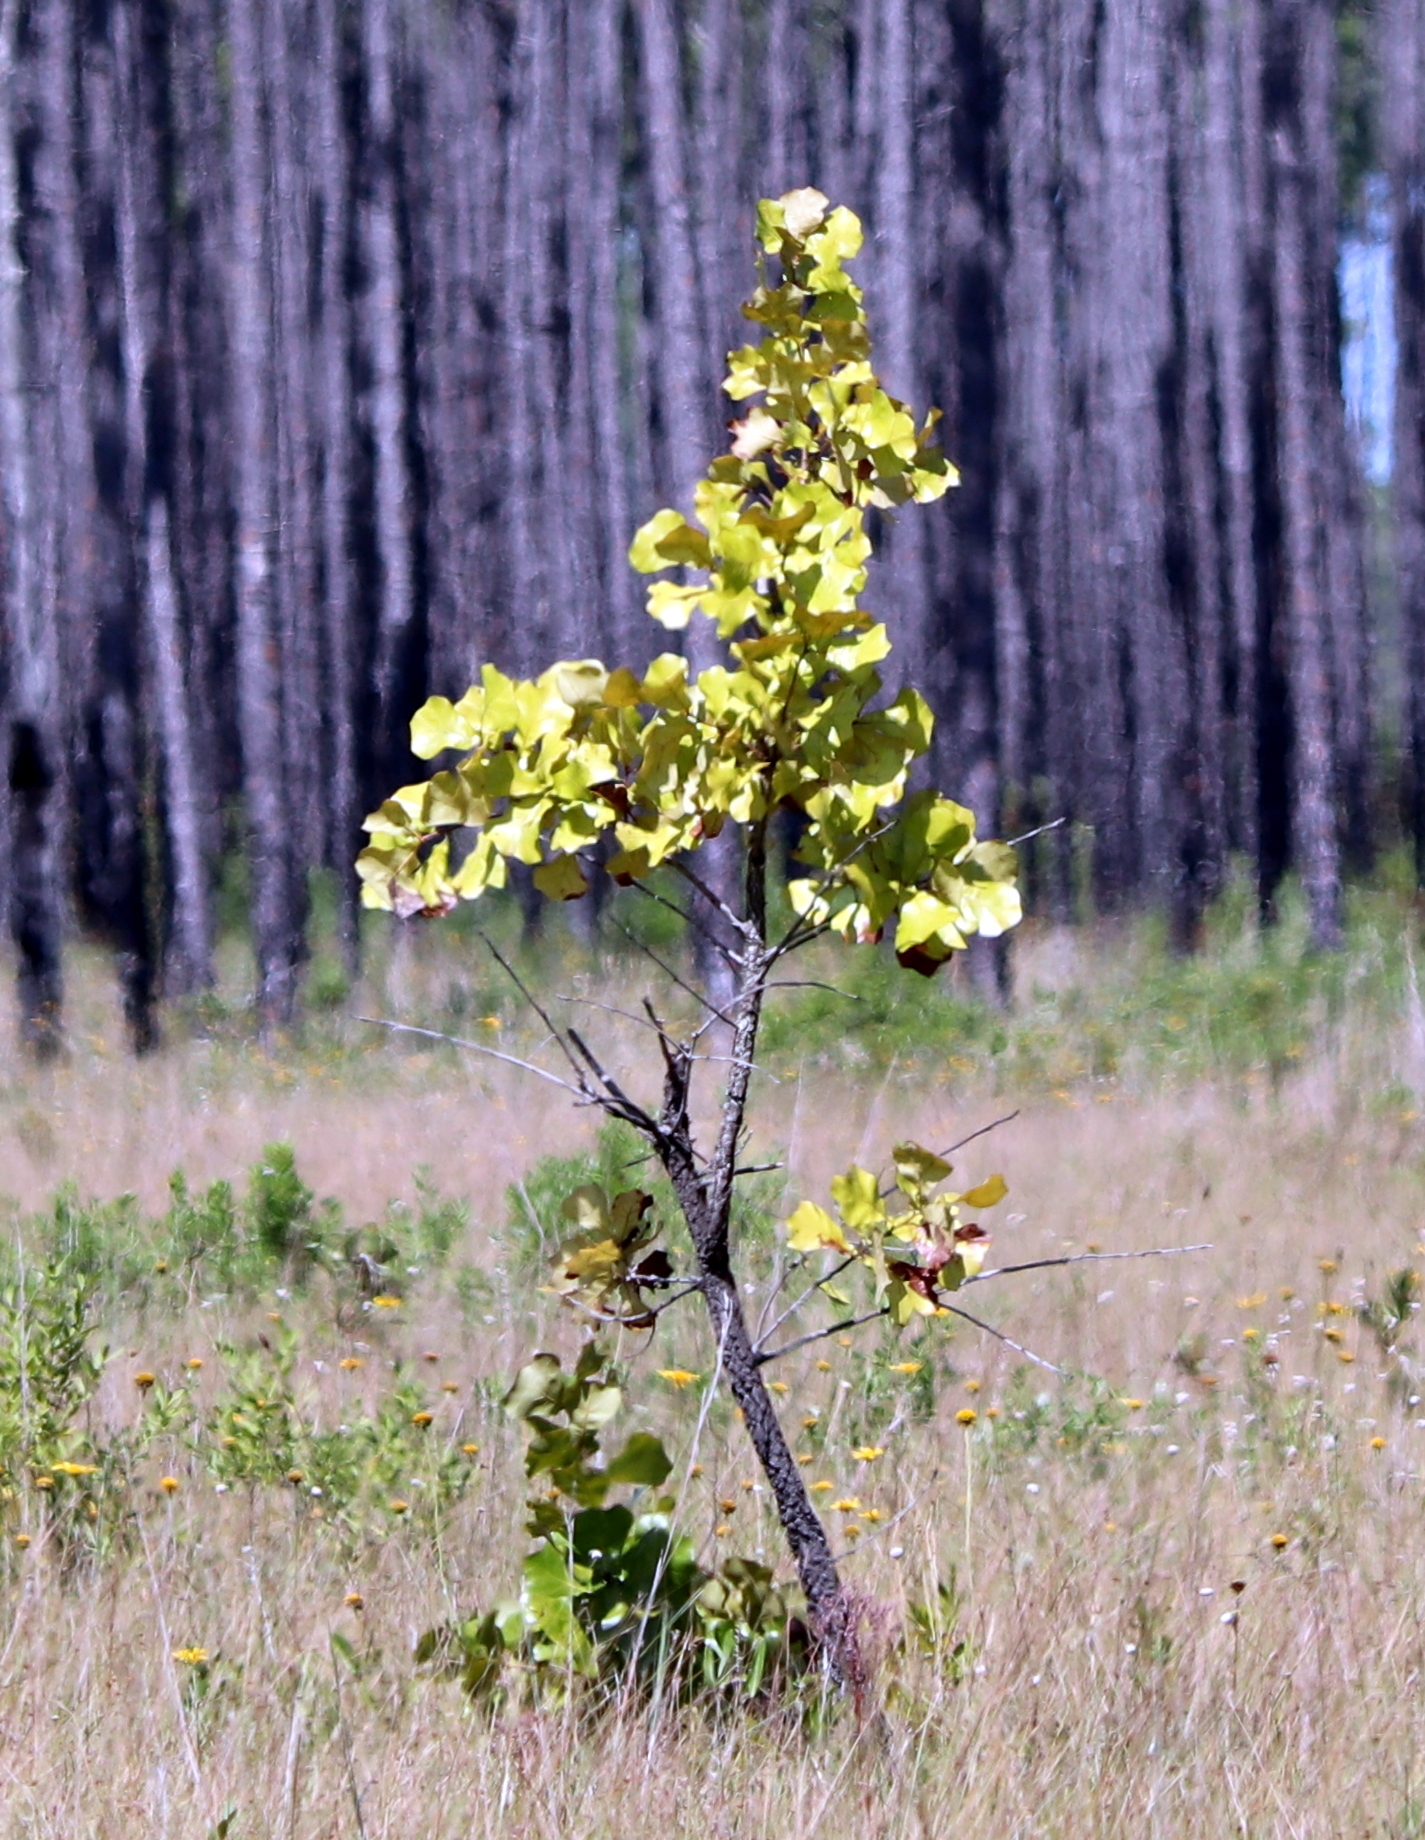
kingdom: Plantae
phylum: Tracheophyta
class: Magnoliopsida
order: Fagales
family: Fagaceae
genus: Quercus
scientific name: Quercus marilandica
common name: Blackjack oak
